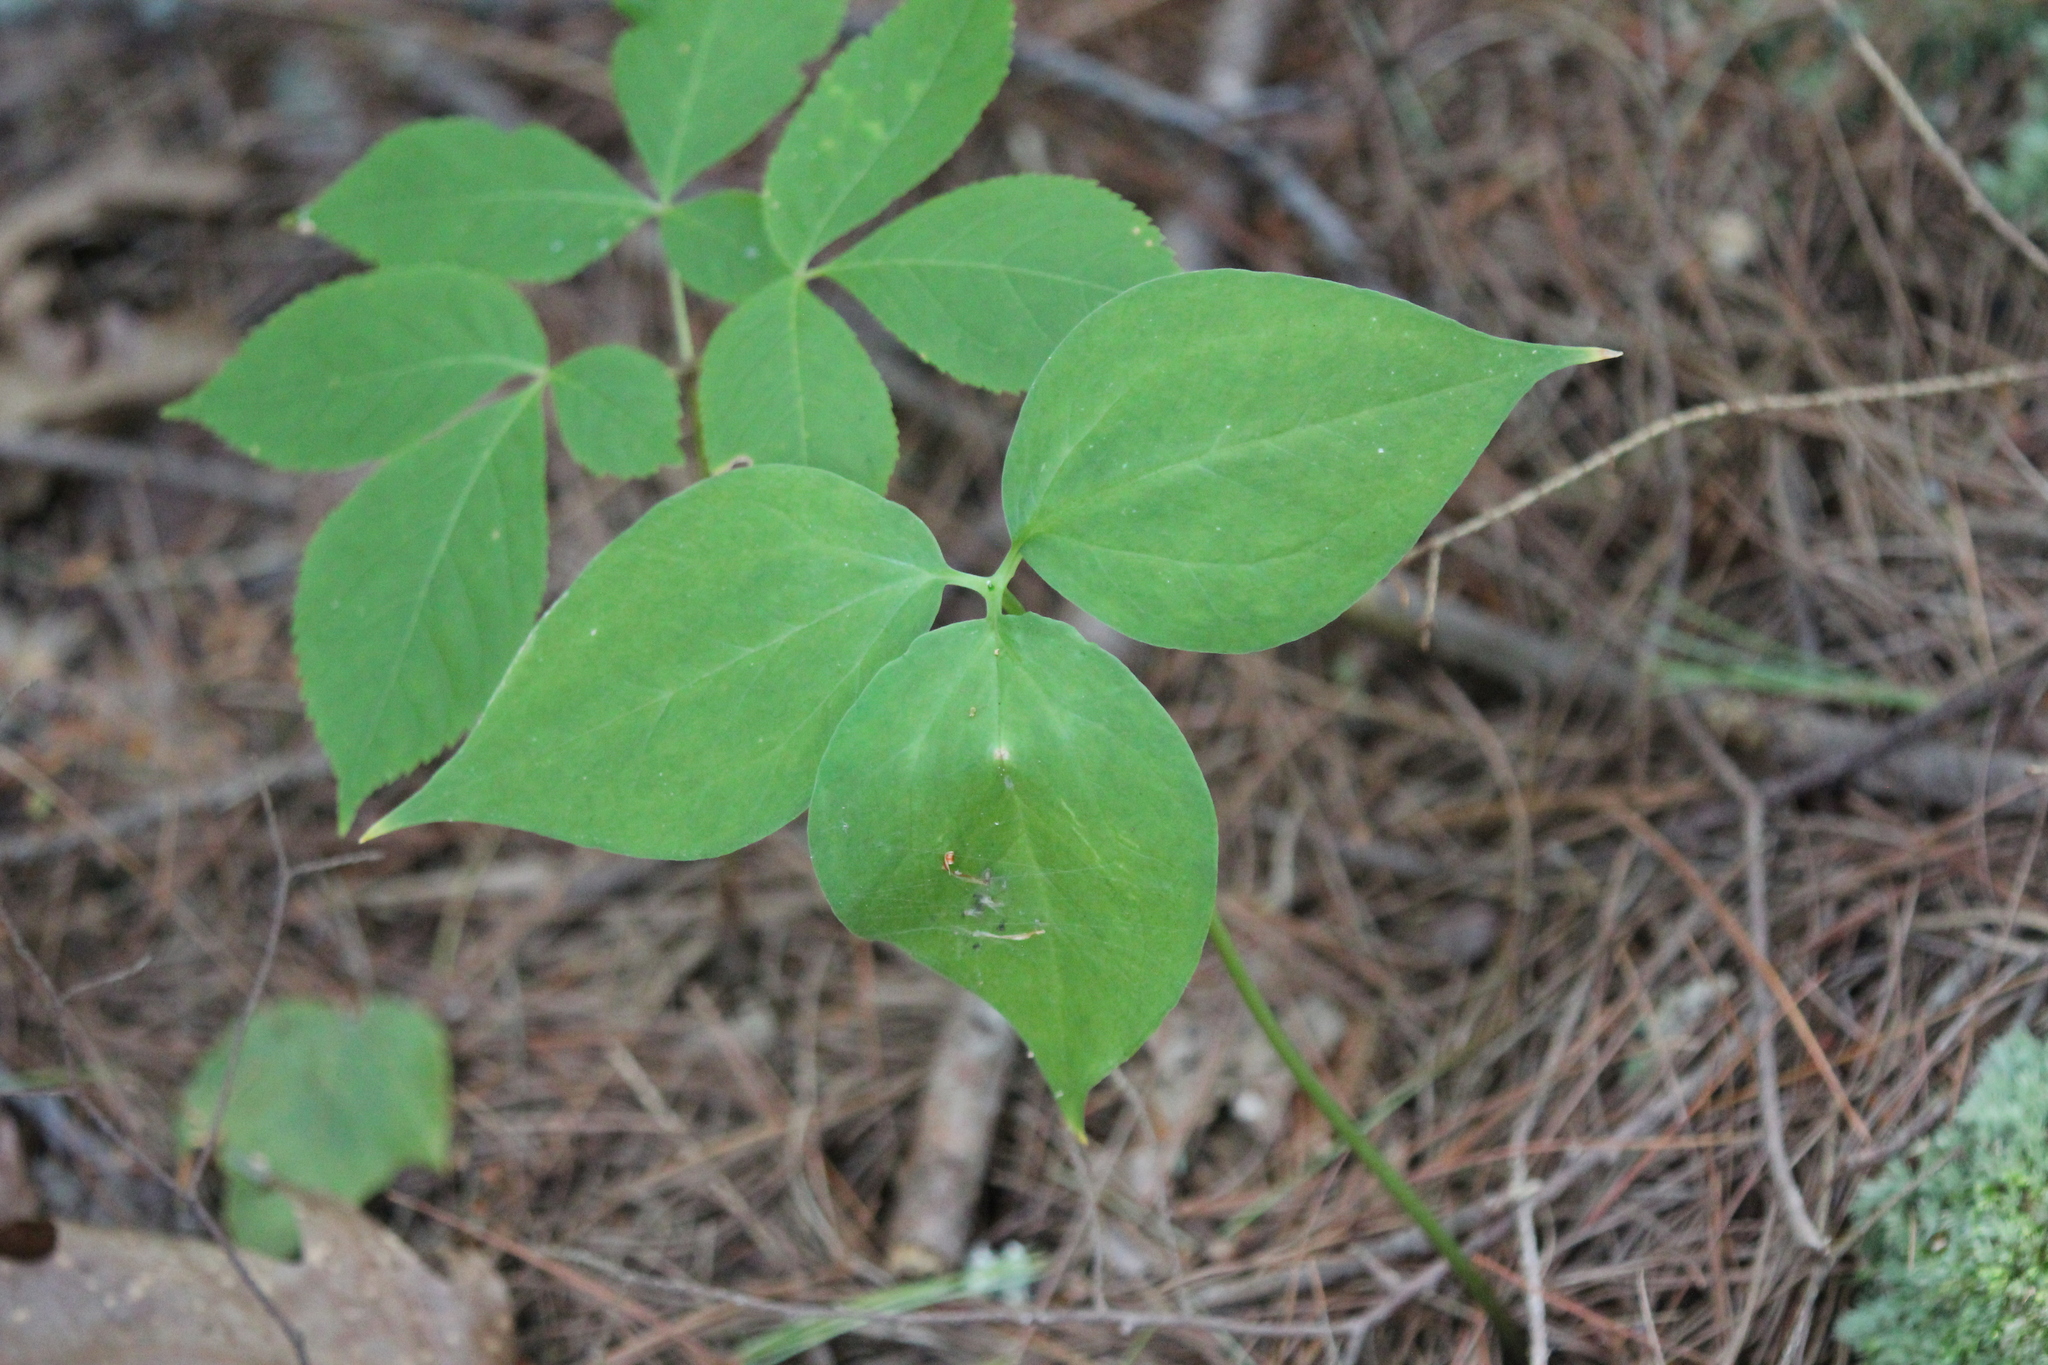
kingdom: Plantae
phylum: Tracheophyta
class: Liliopsida
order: Liliales
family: Melanthiaceae
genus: Trillium
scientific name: Trillium undulatum
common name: Paint trillium
